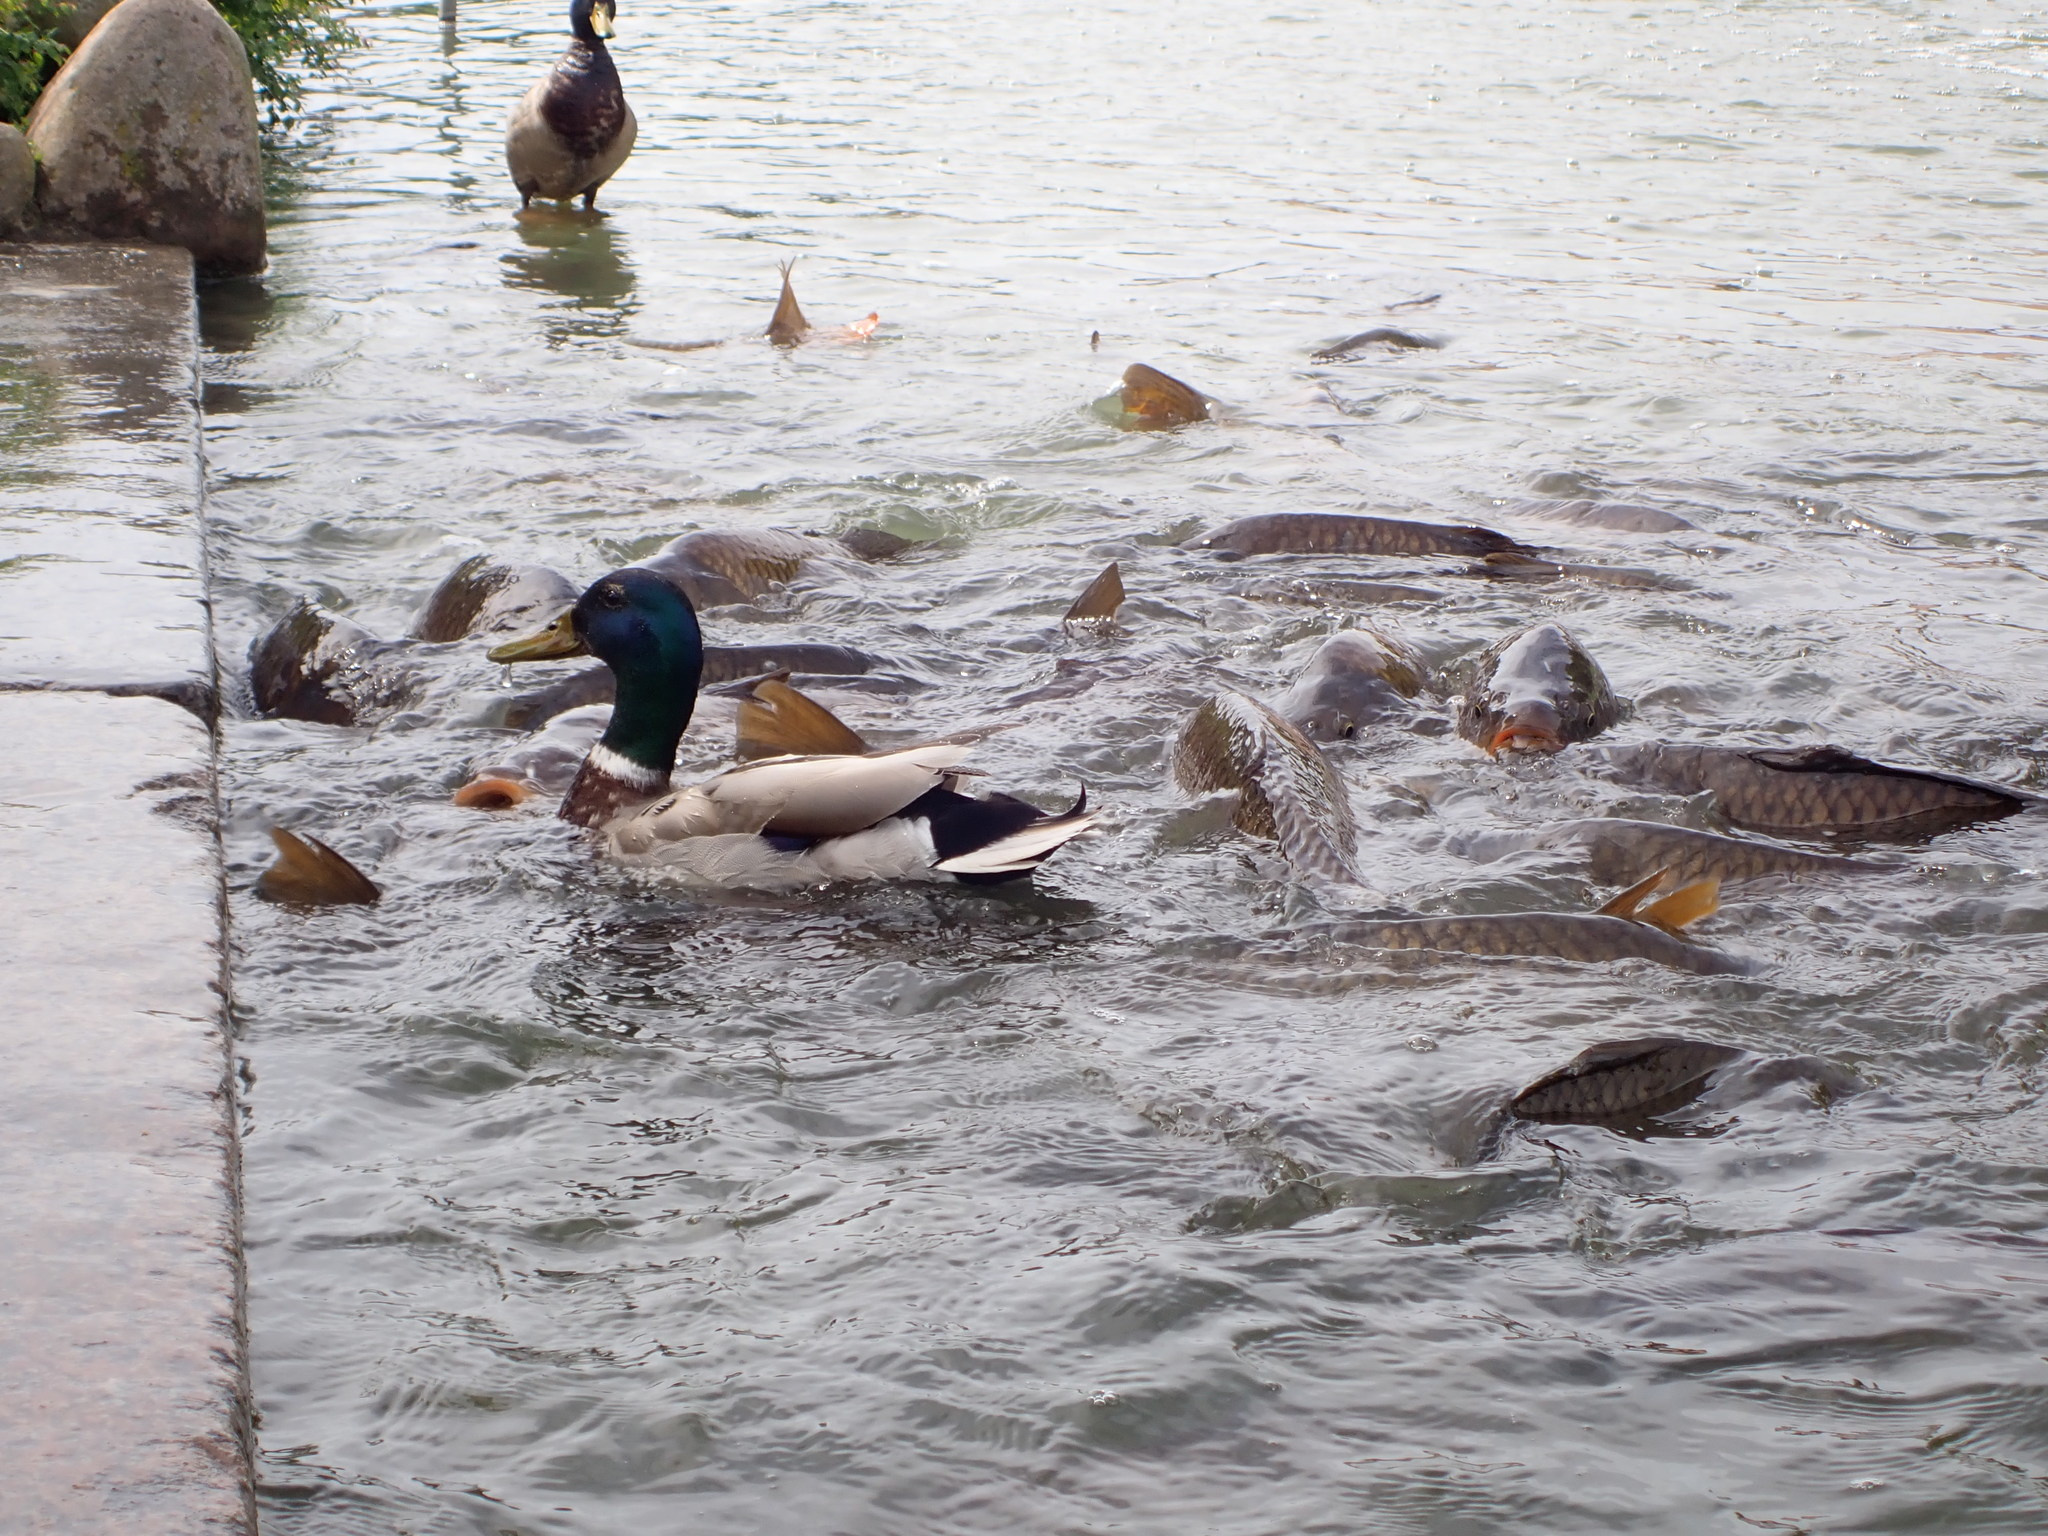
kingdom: Animalia
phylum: Chordata
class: Aves
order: Anseriformes
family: Anatidae
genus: Anas
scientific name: Anas platyrhynchos
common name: Mallard
